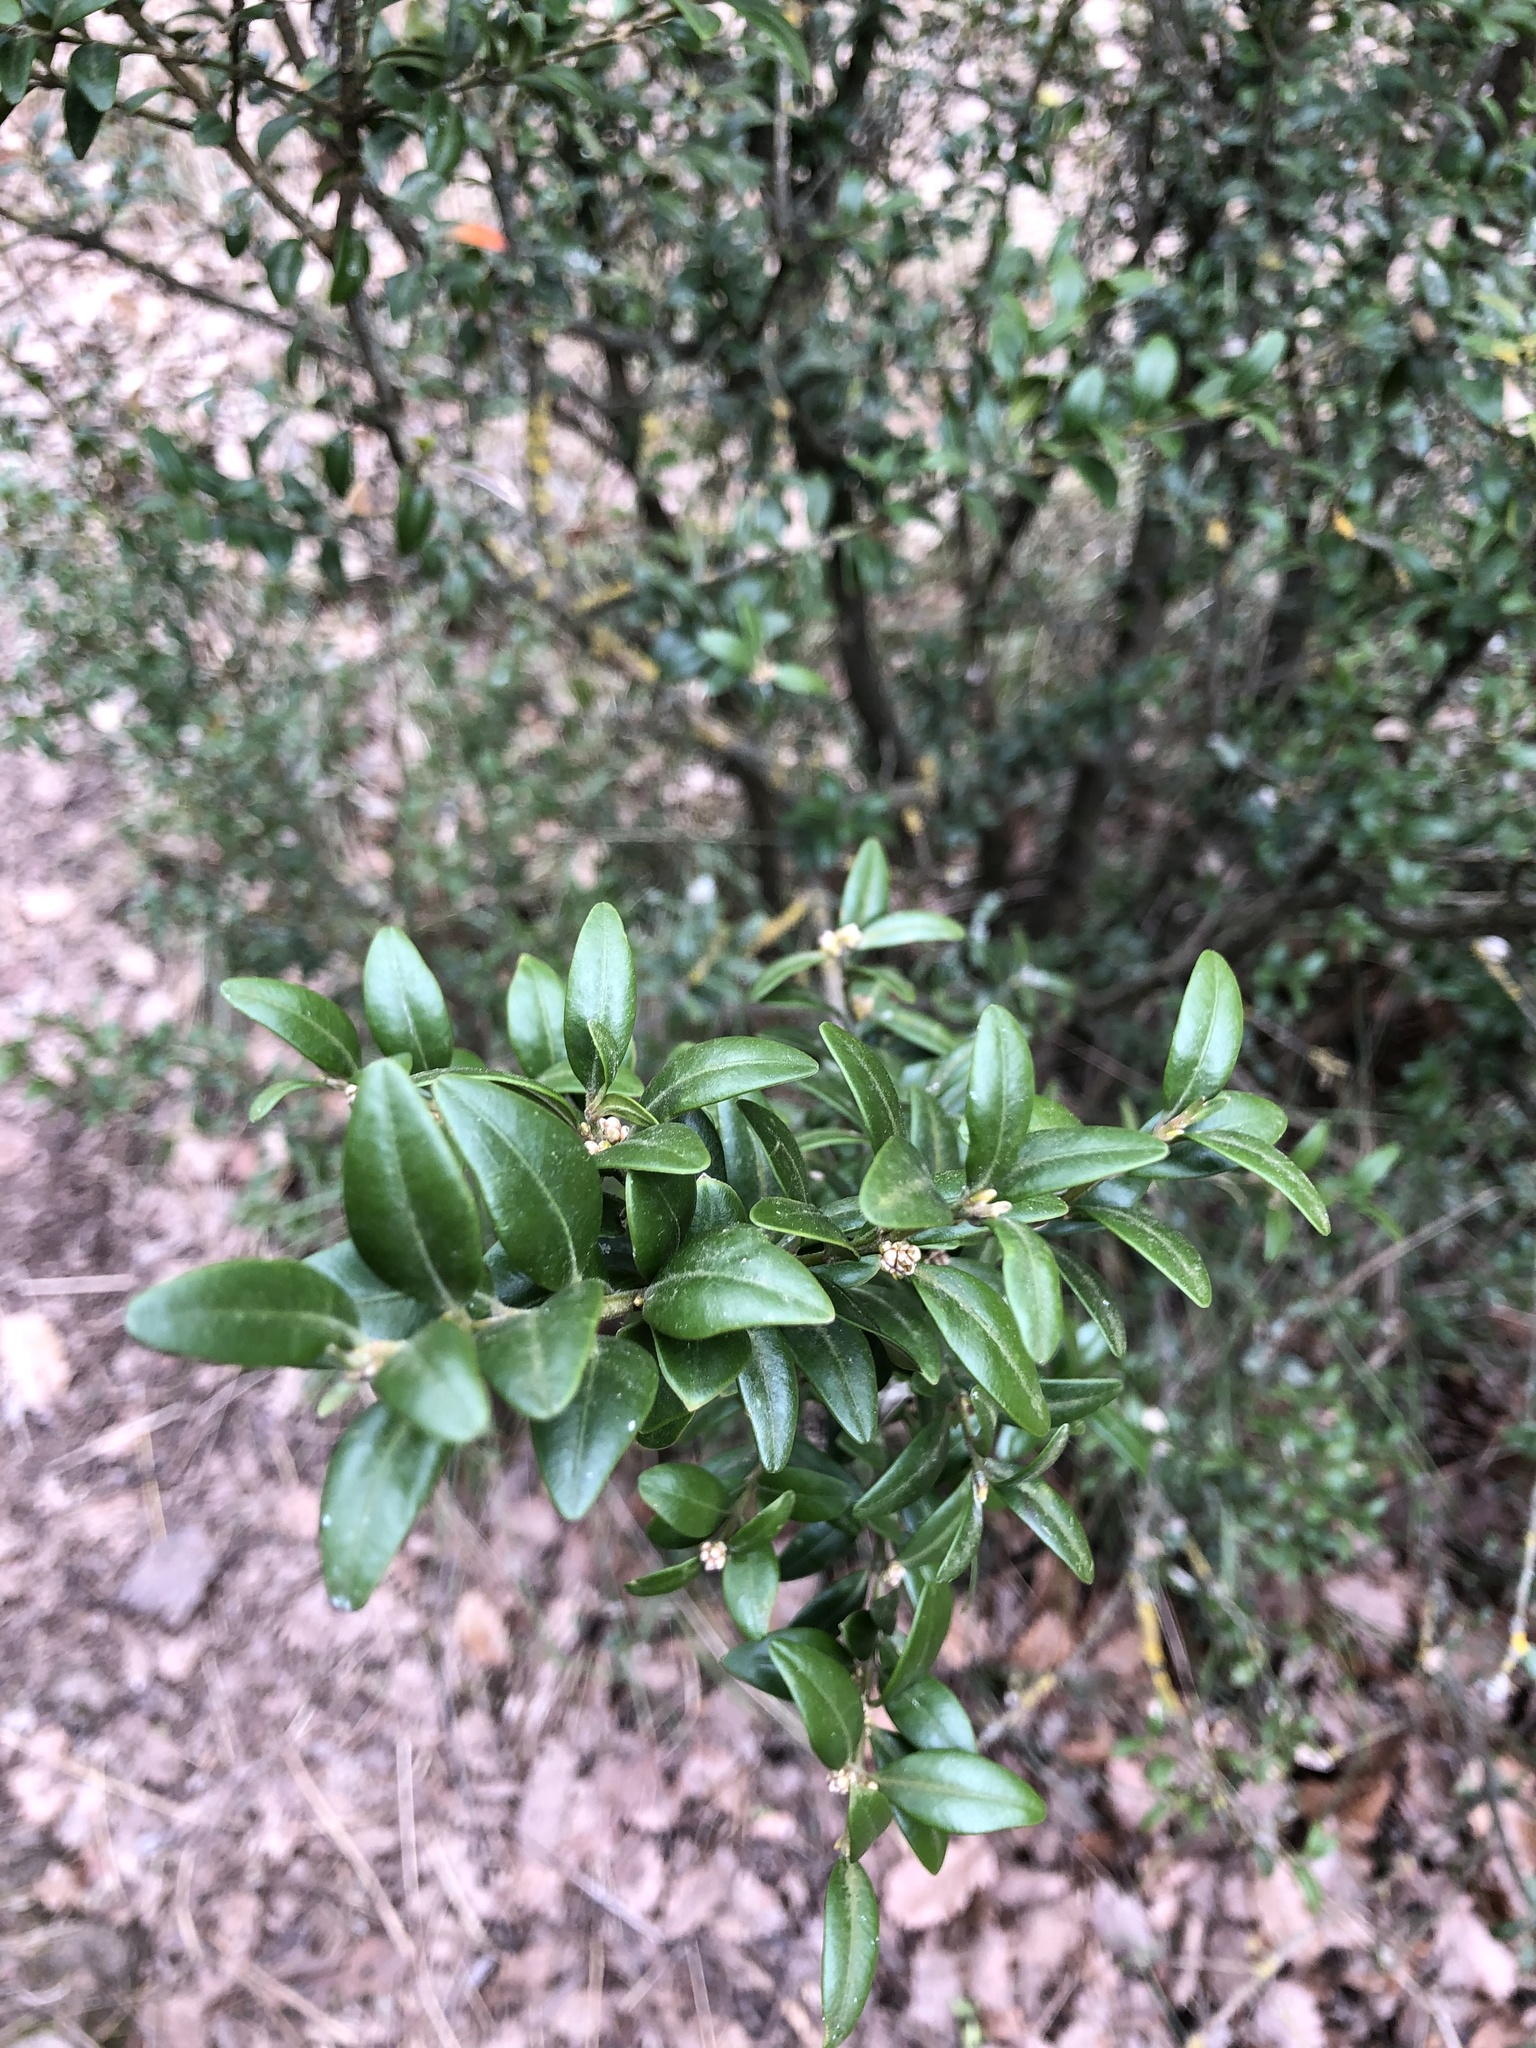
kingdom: Plantae
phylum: Tracheophyta
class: Magnoliopsida
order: Buxales
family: Buxaceae
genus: Buxus
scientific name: Buxus sempervirens
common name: Box
